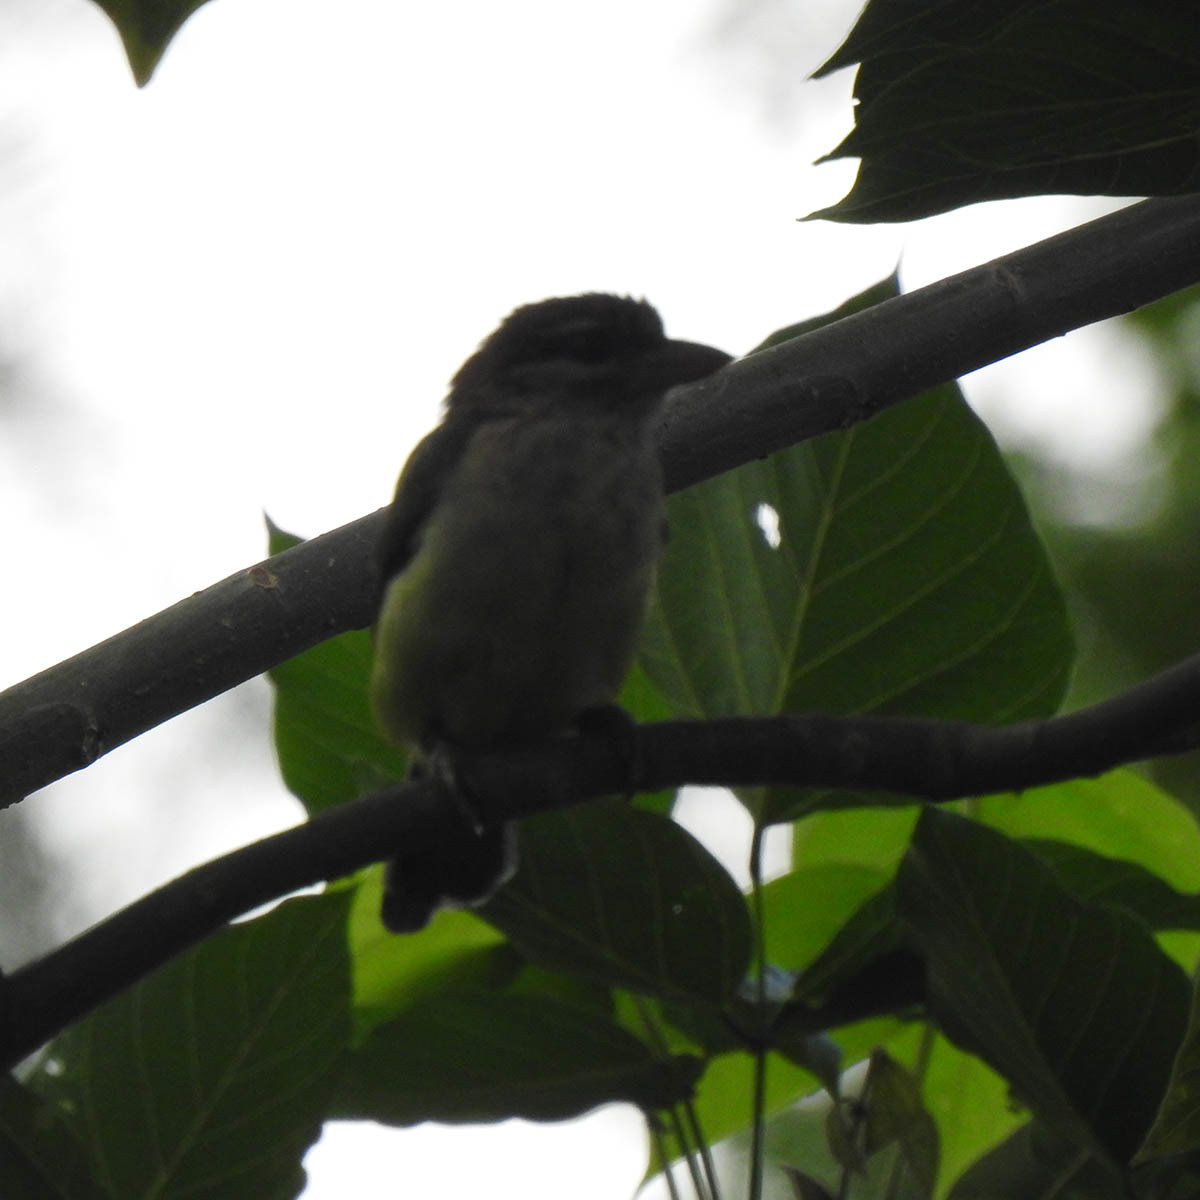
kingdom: Animalia
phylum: Chordata
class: Aves
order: Piciformes
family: Megalaimidae
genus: Psilopogon
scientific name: Psilopogon viridis
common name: White-cheeked barbet
